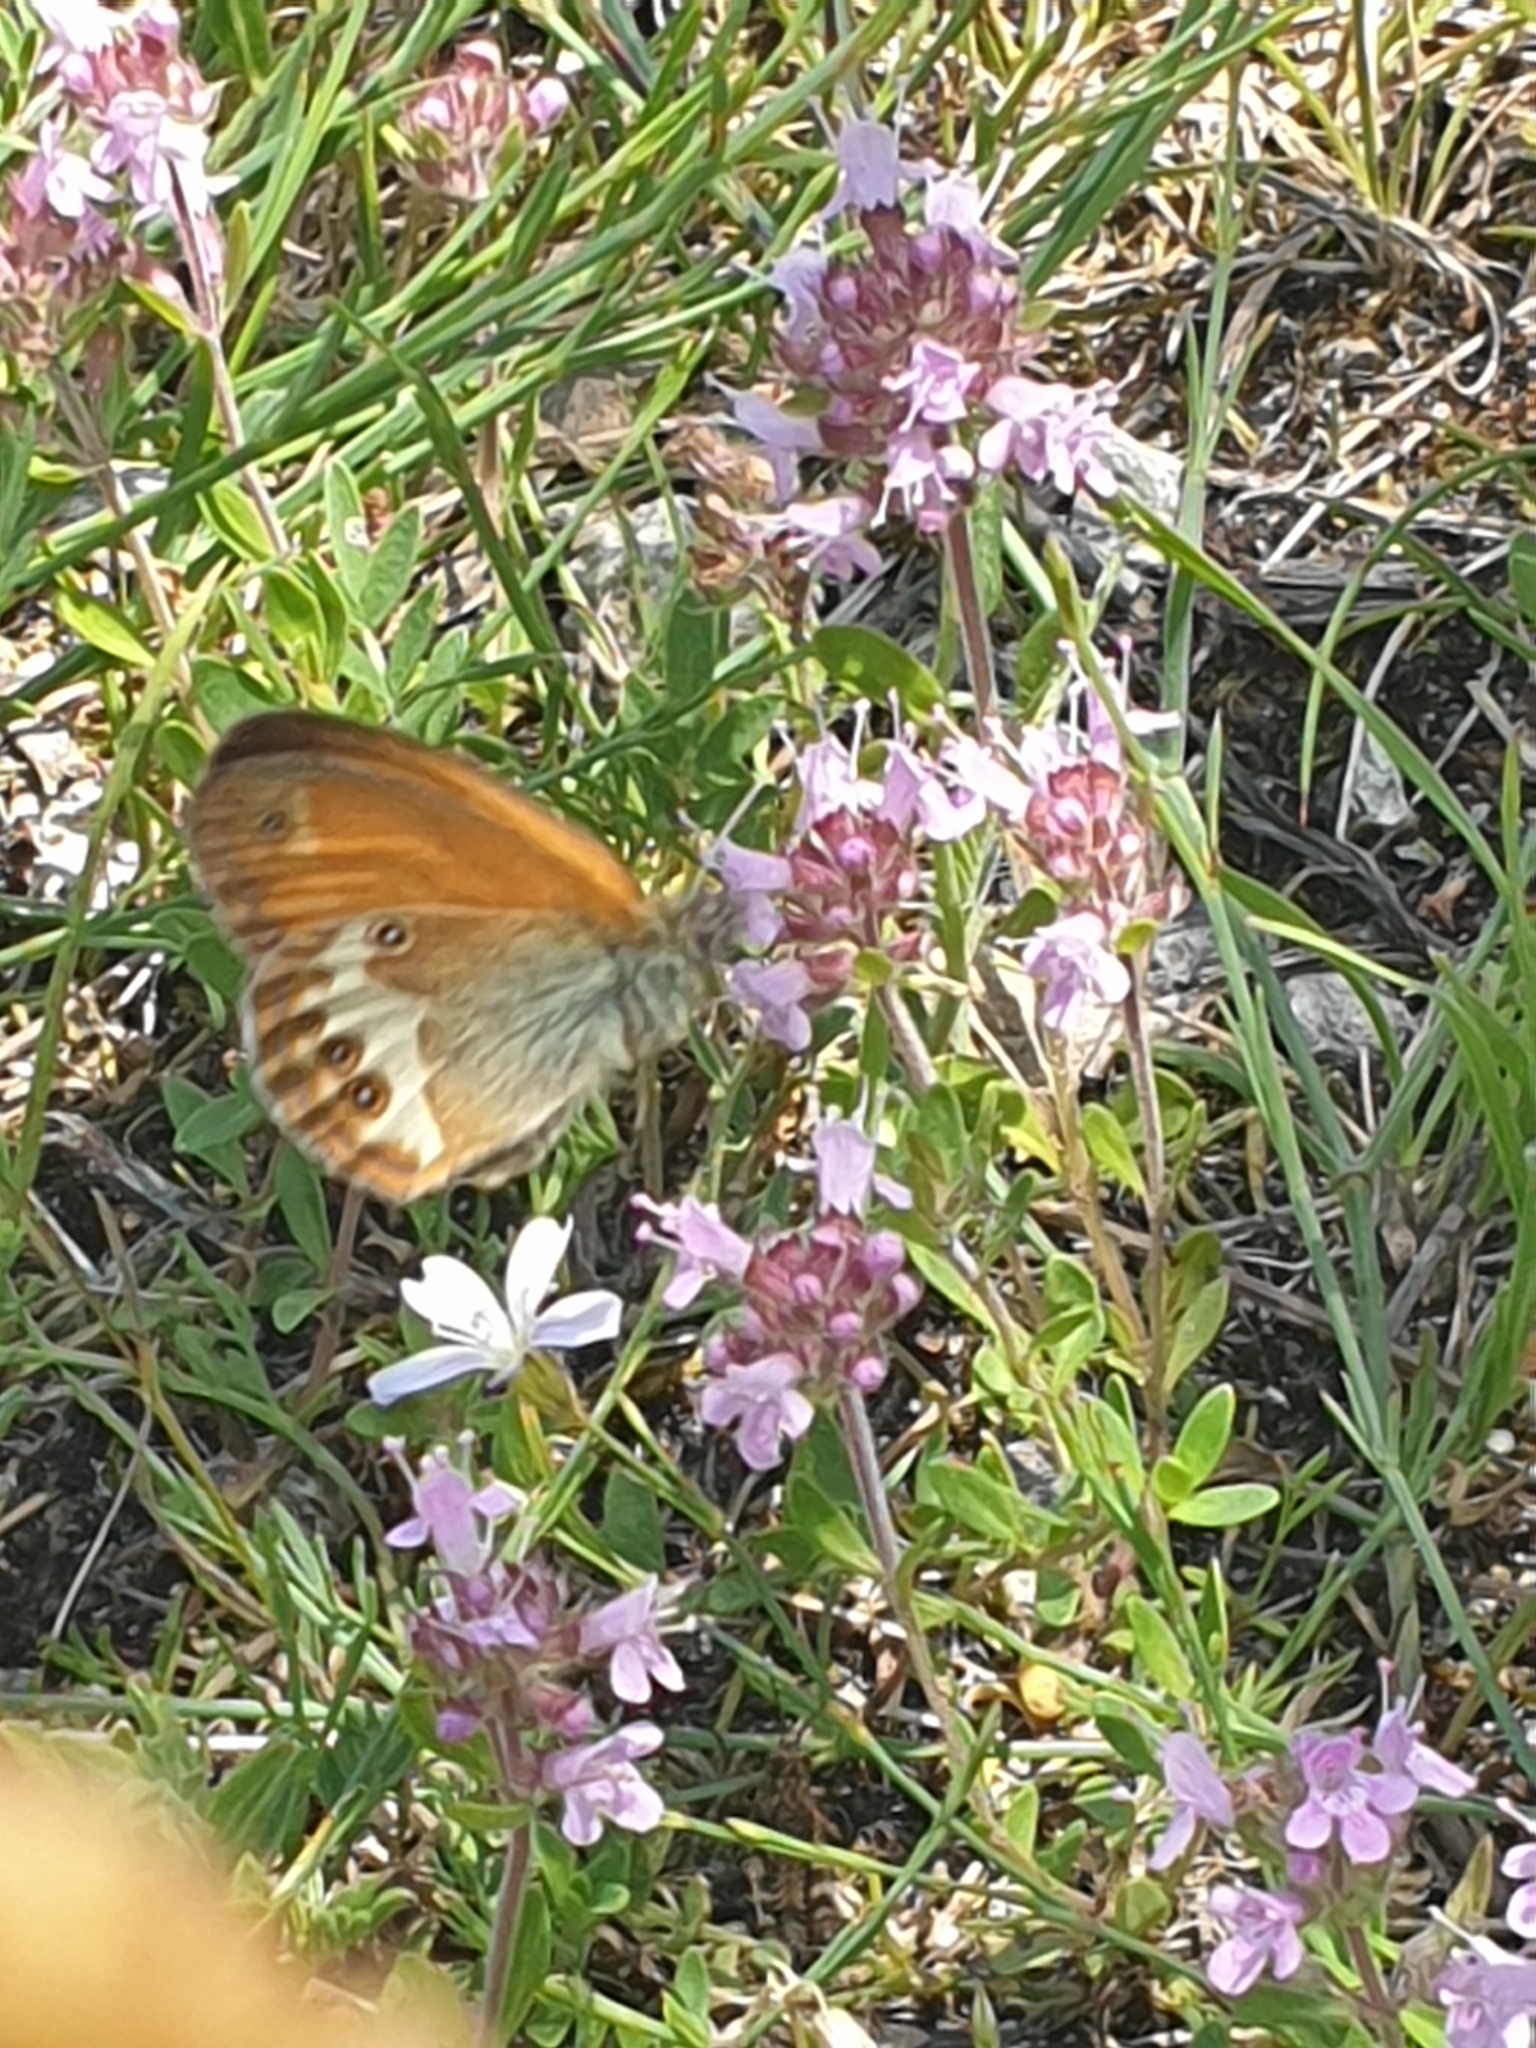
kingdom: Animalia
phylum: Arthropoda
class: Insecta
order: Lepidoptera
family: Nymphalidae
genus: Coenonympha
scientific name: Coenonympha arcania
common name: Pearly heath
